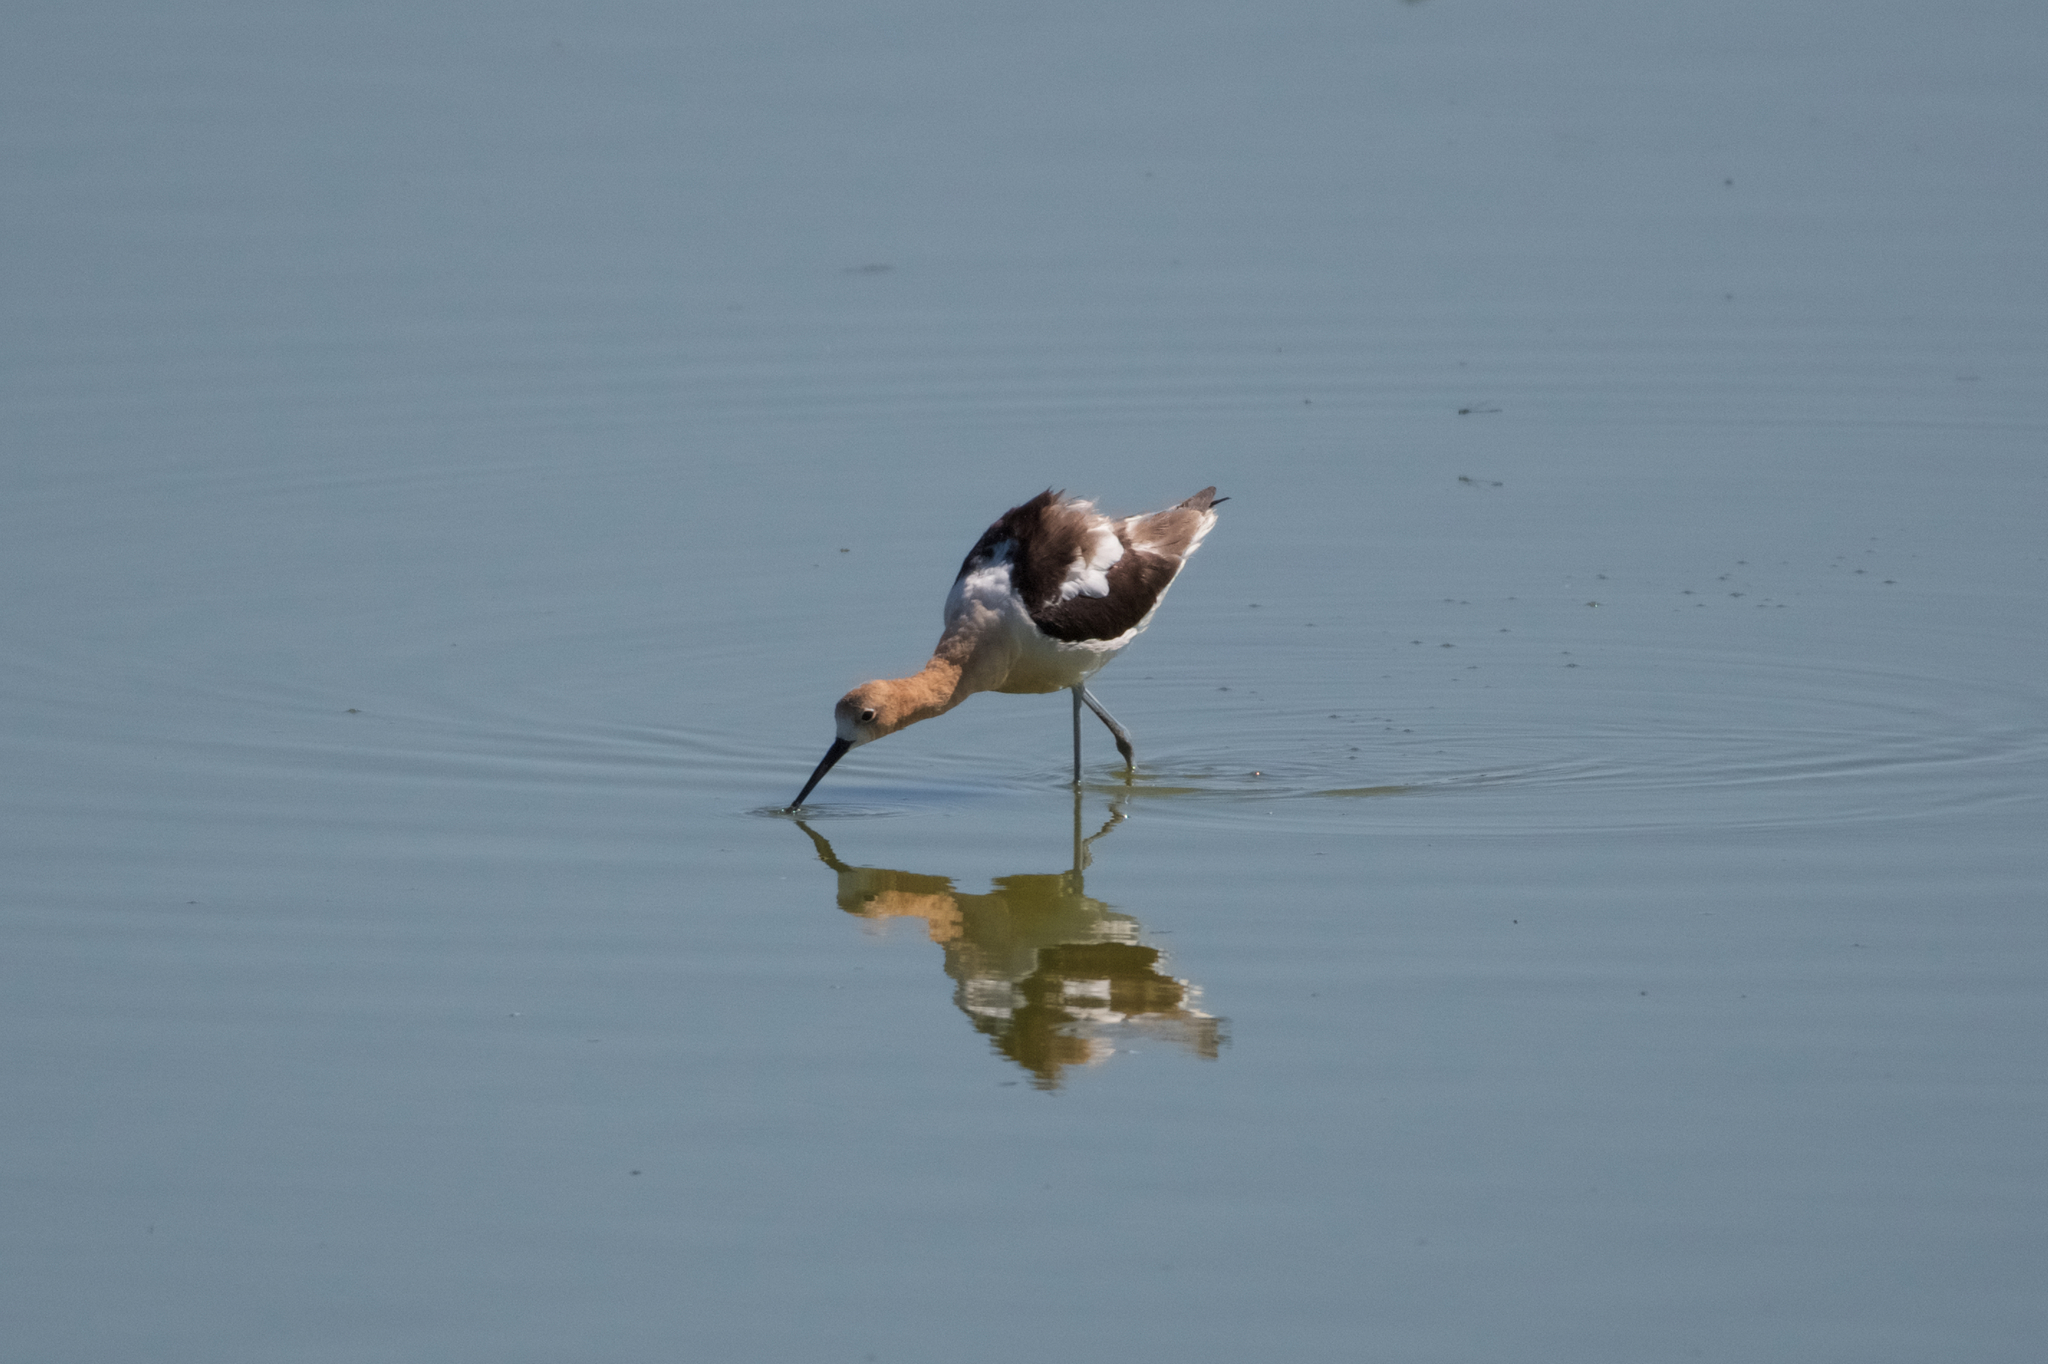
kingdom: Animalia
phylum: Chordata
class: Aves
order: Charadriiformes
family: Recurvirostridae
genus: Recurvirostra
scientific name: Recurvirostra americana
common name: American avocet
